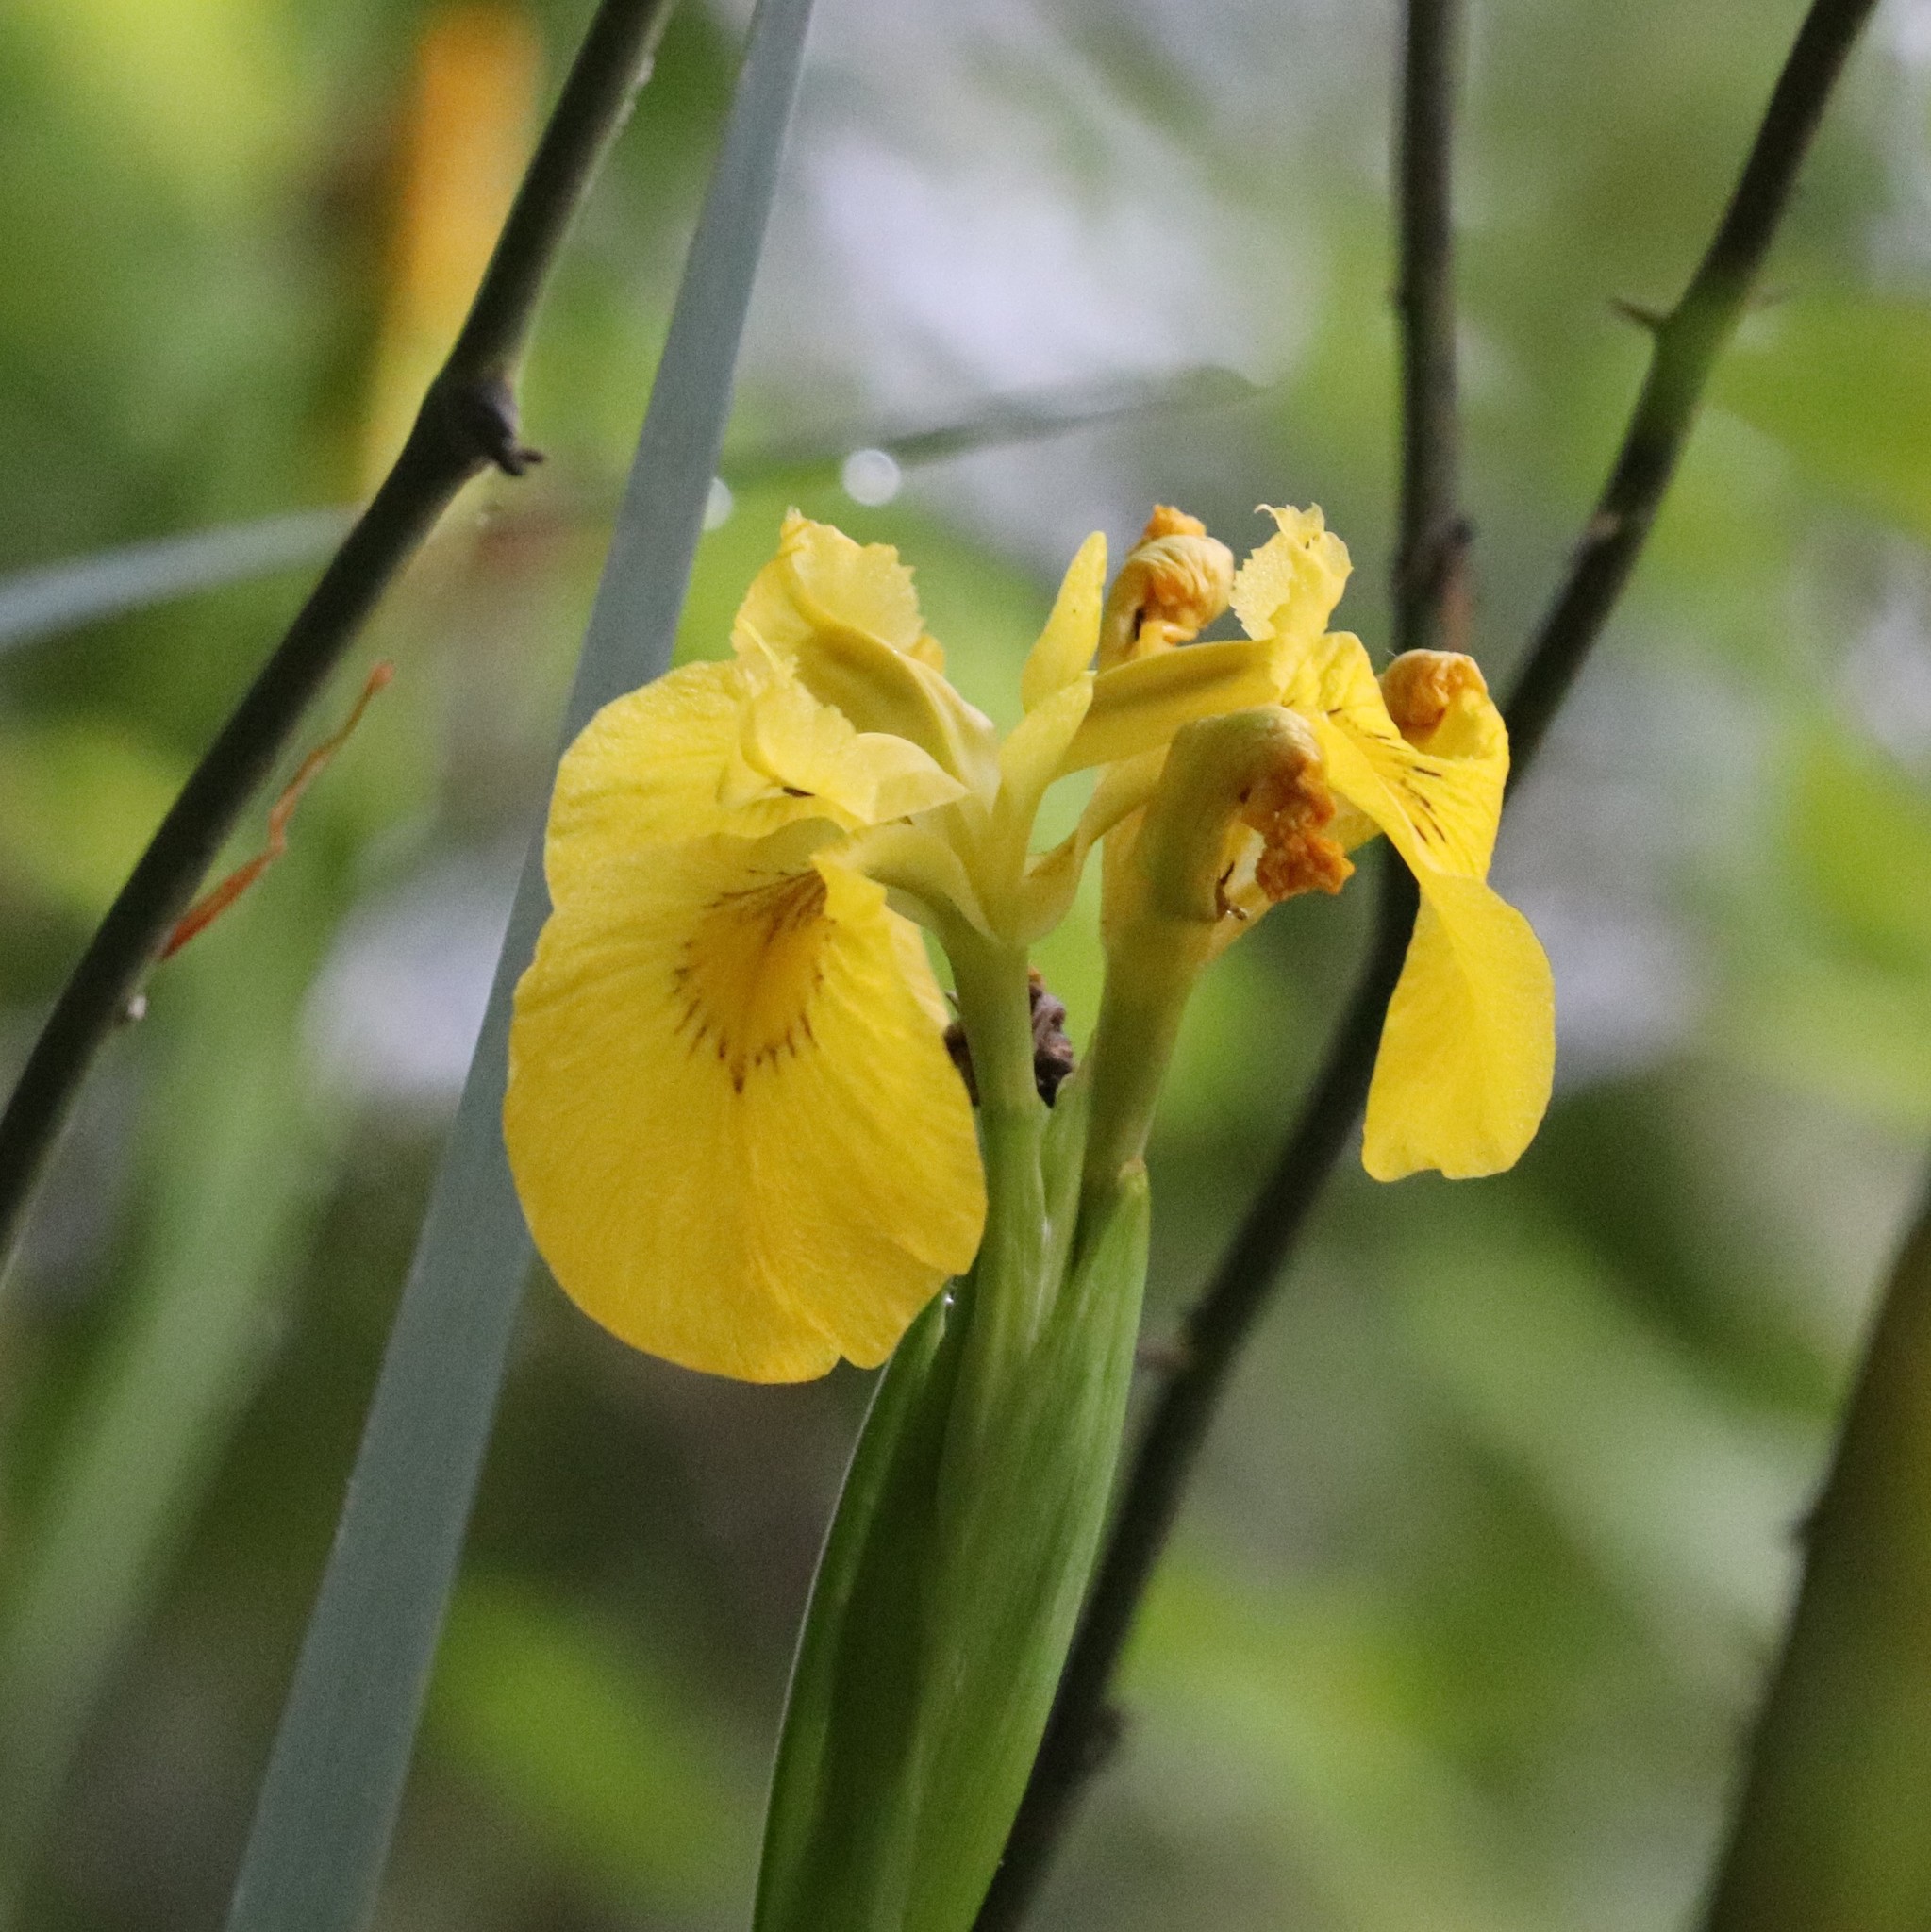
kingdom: Plantae
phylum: Tracheophyta
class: Liliopsida
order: Asparagales
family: Iridaceae
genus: Iris
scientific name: Iris pseudacorus
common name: Yellow flag
